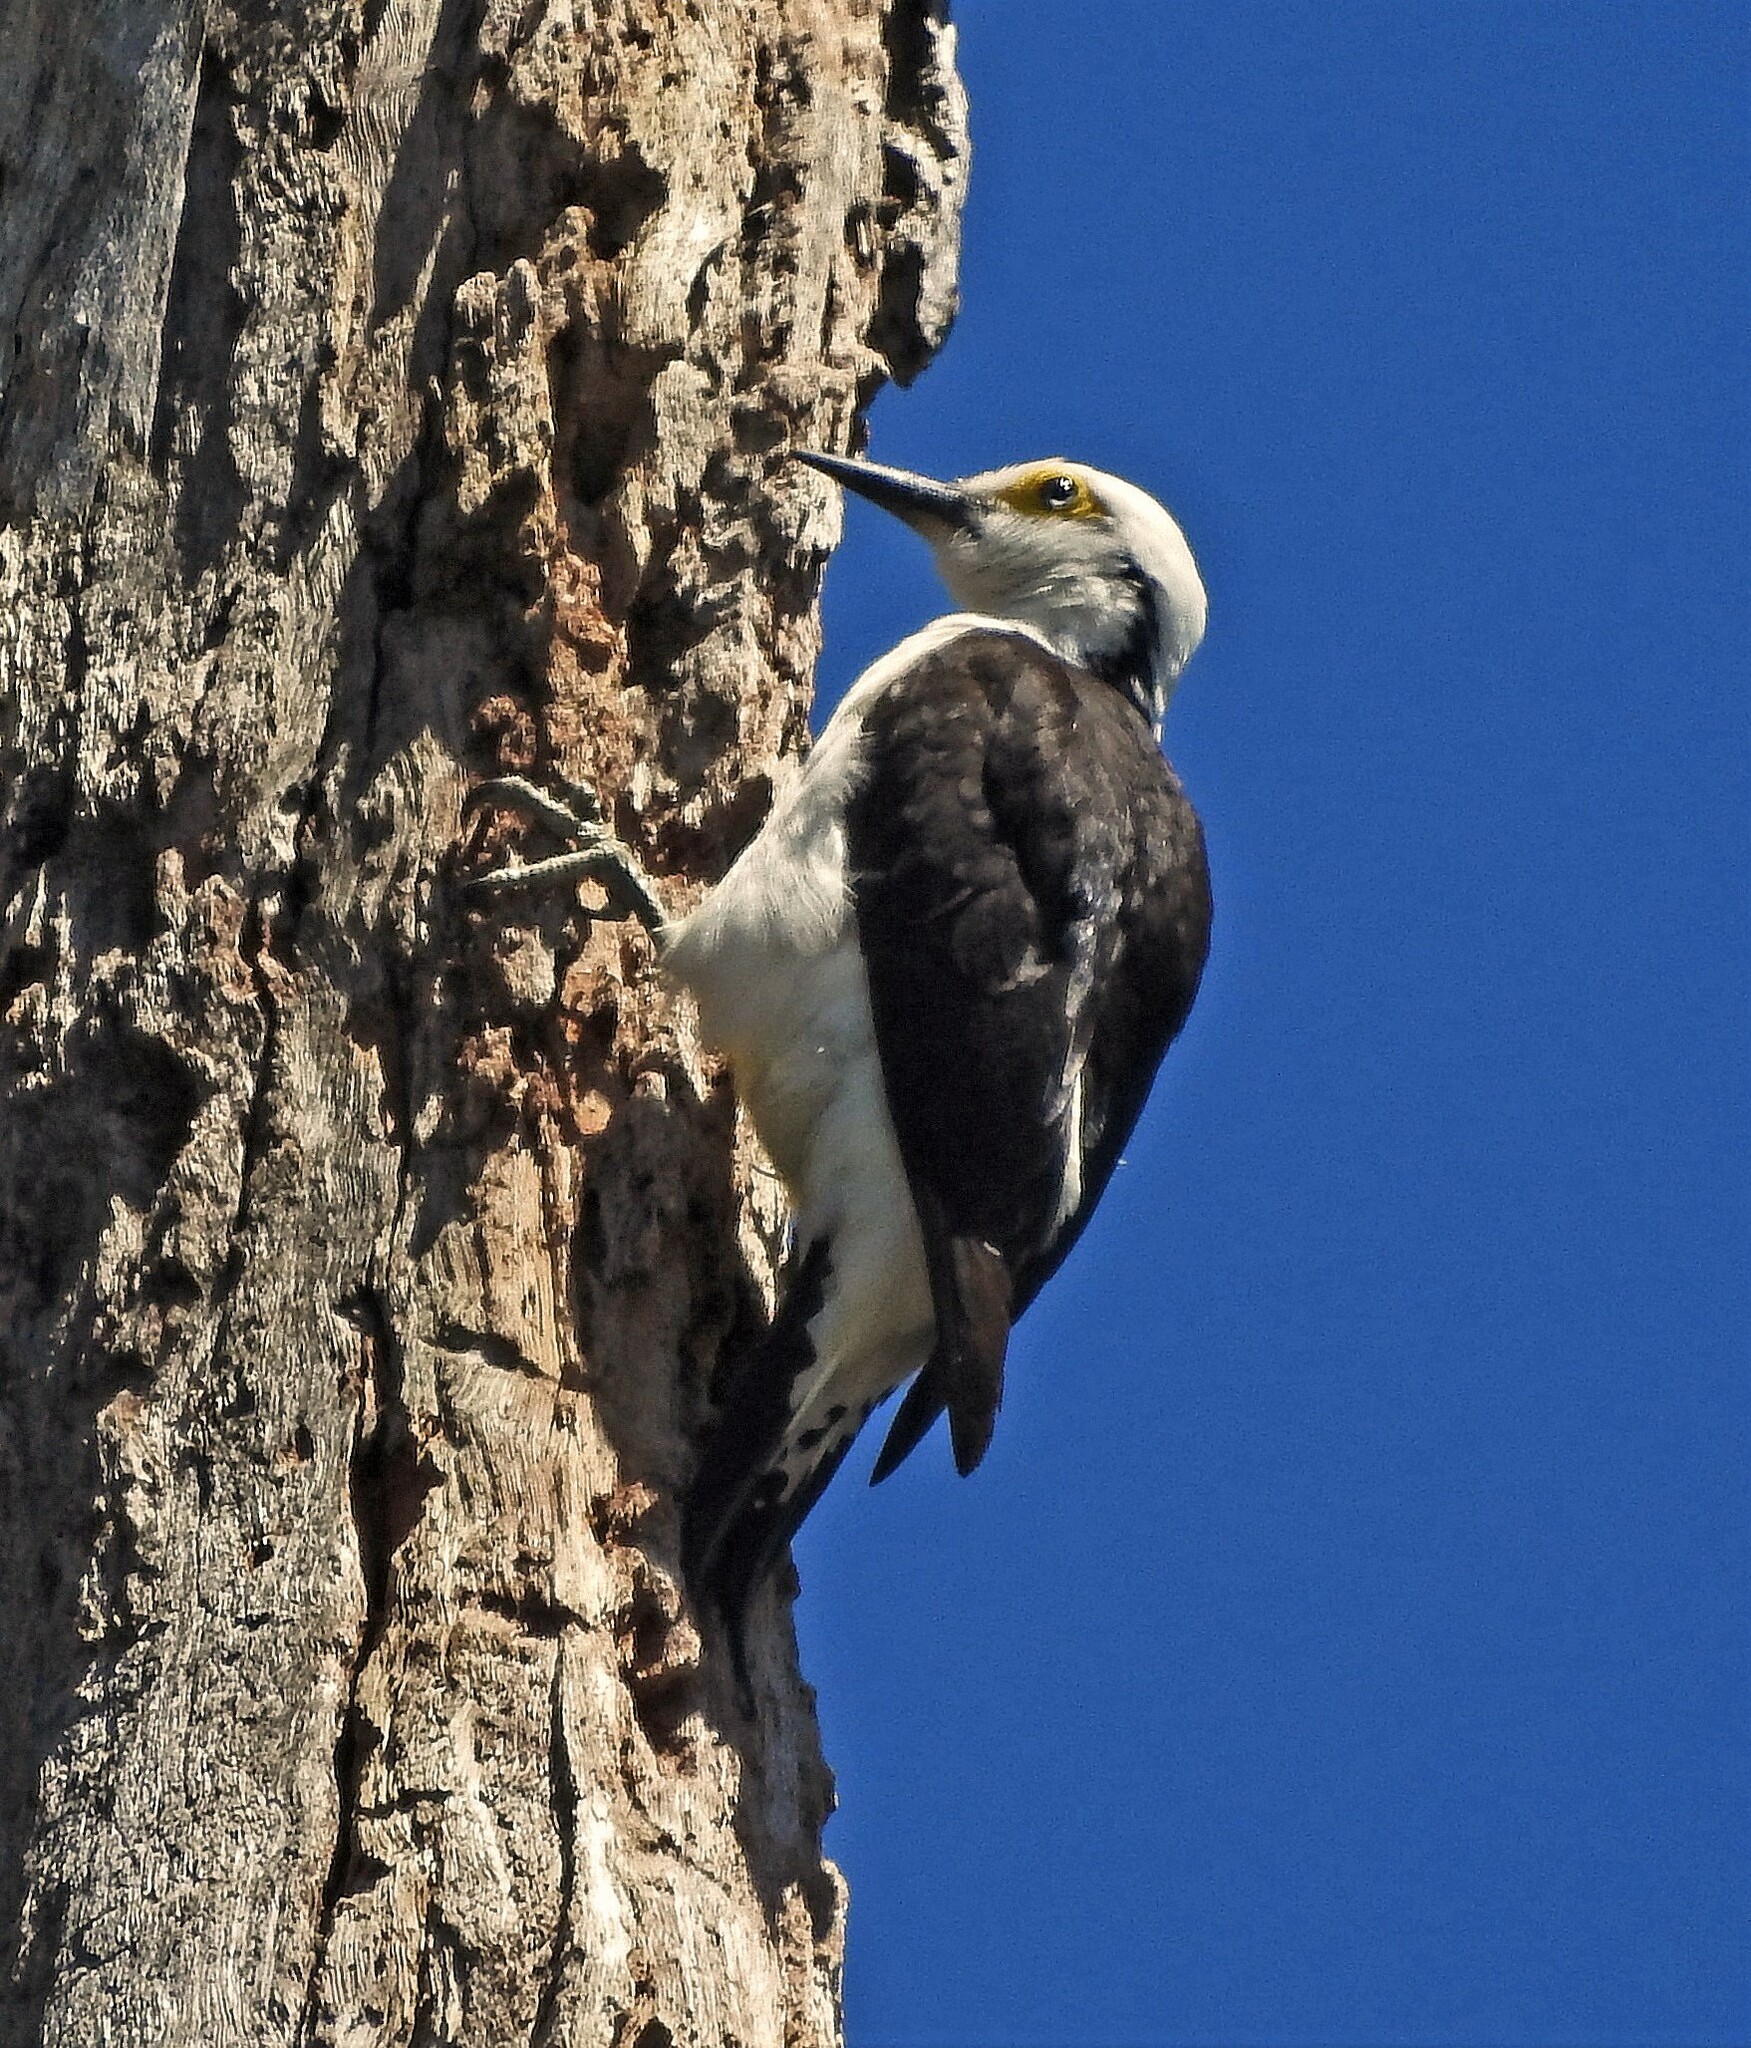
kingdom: Animalia
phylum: Chordata
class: Aves
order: Piciformes
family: Picidae
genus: Melanerpes
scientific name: Melanerpes candidus
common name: White woodpecker
